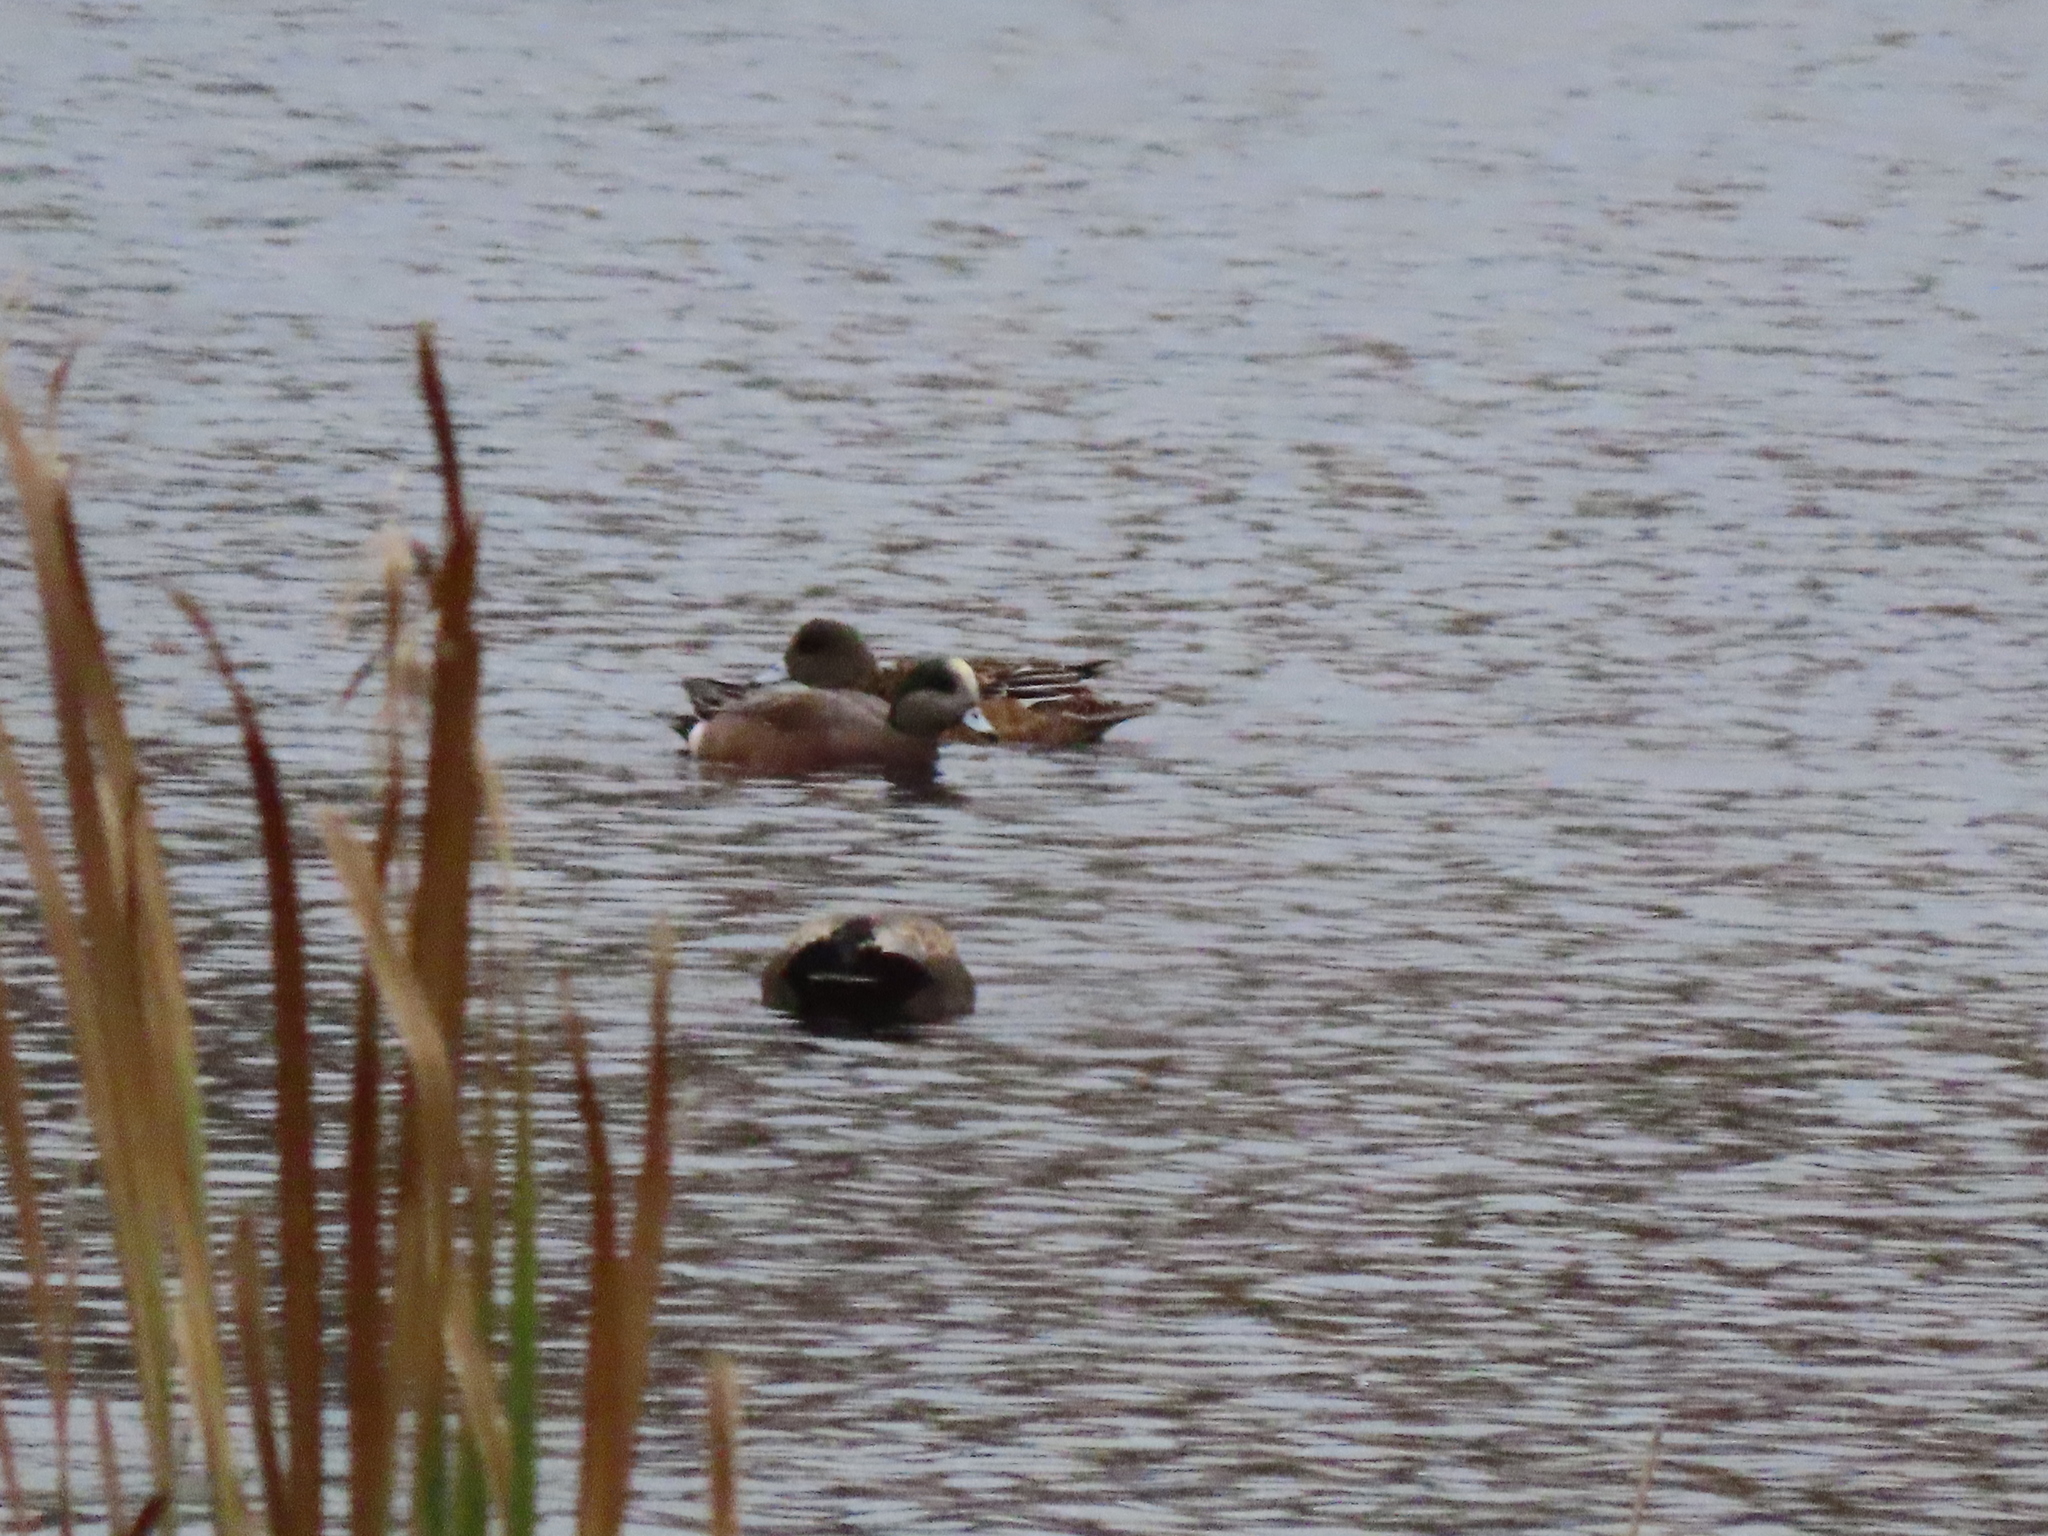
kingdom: Animalia
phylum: Chordata
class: Aves
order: Anseriformes
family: Anatidae
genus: Mareca
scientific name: Mareca americana
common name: American wigeon
